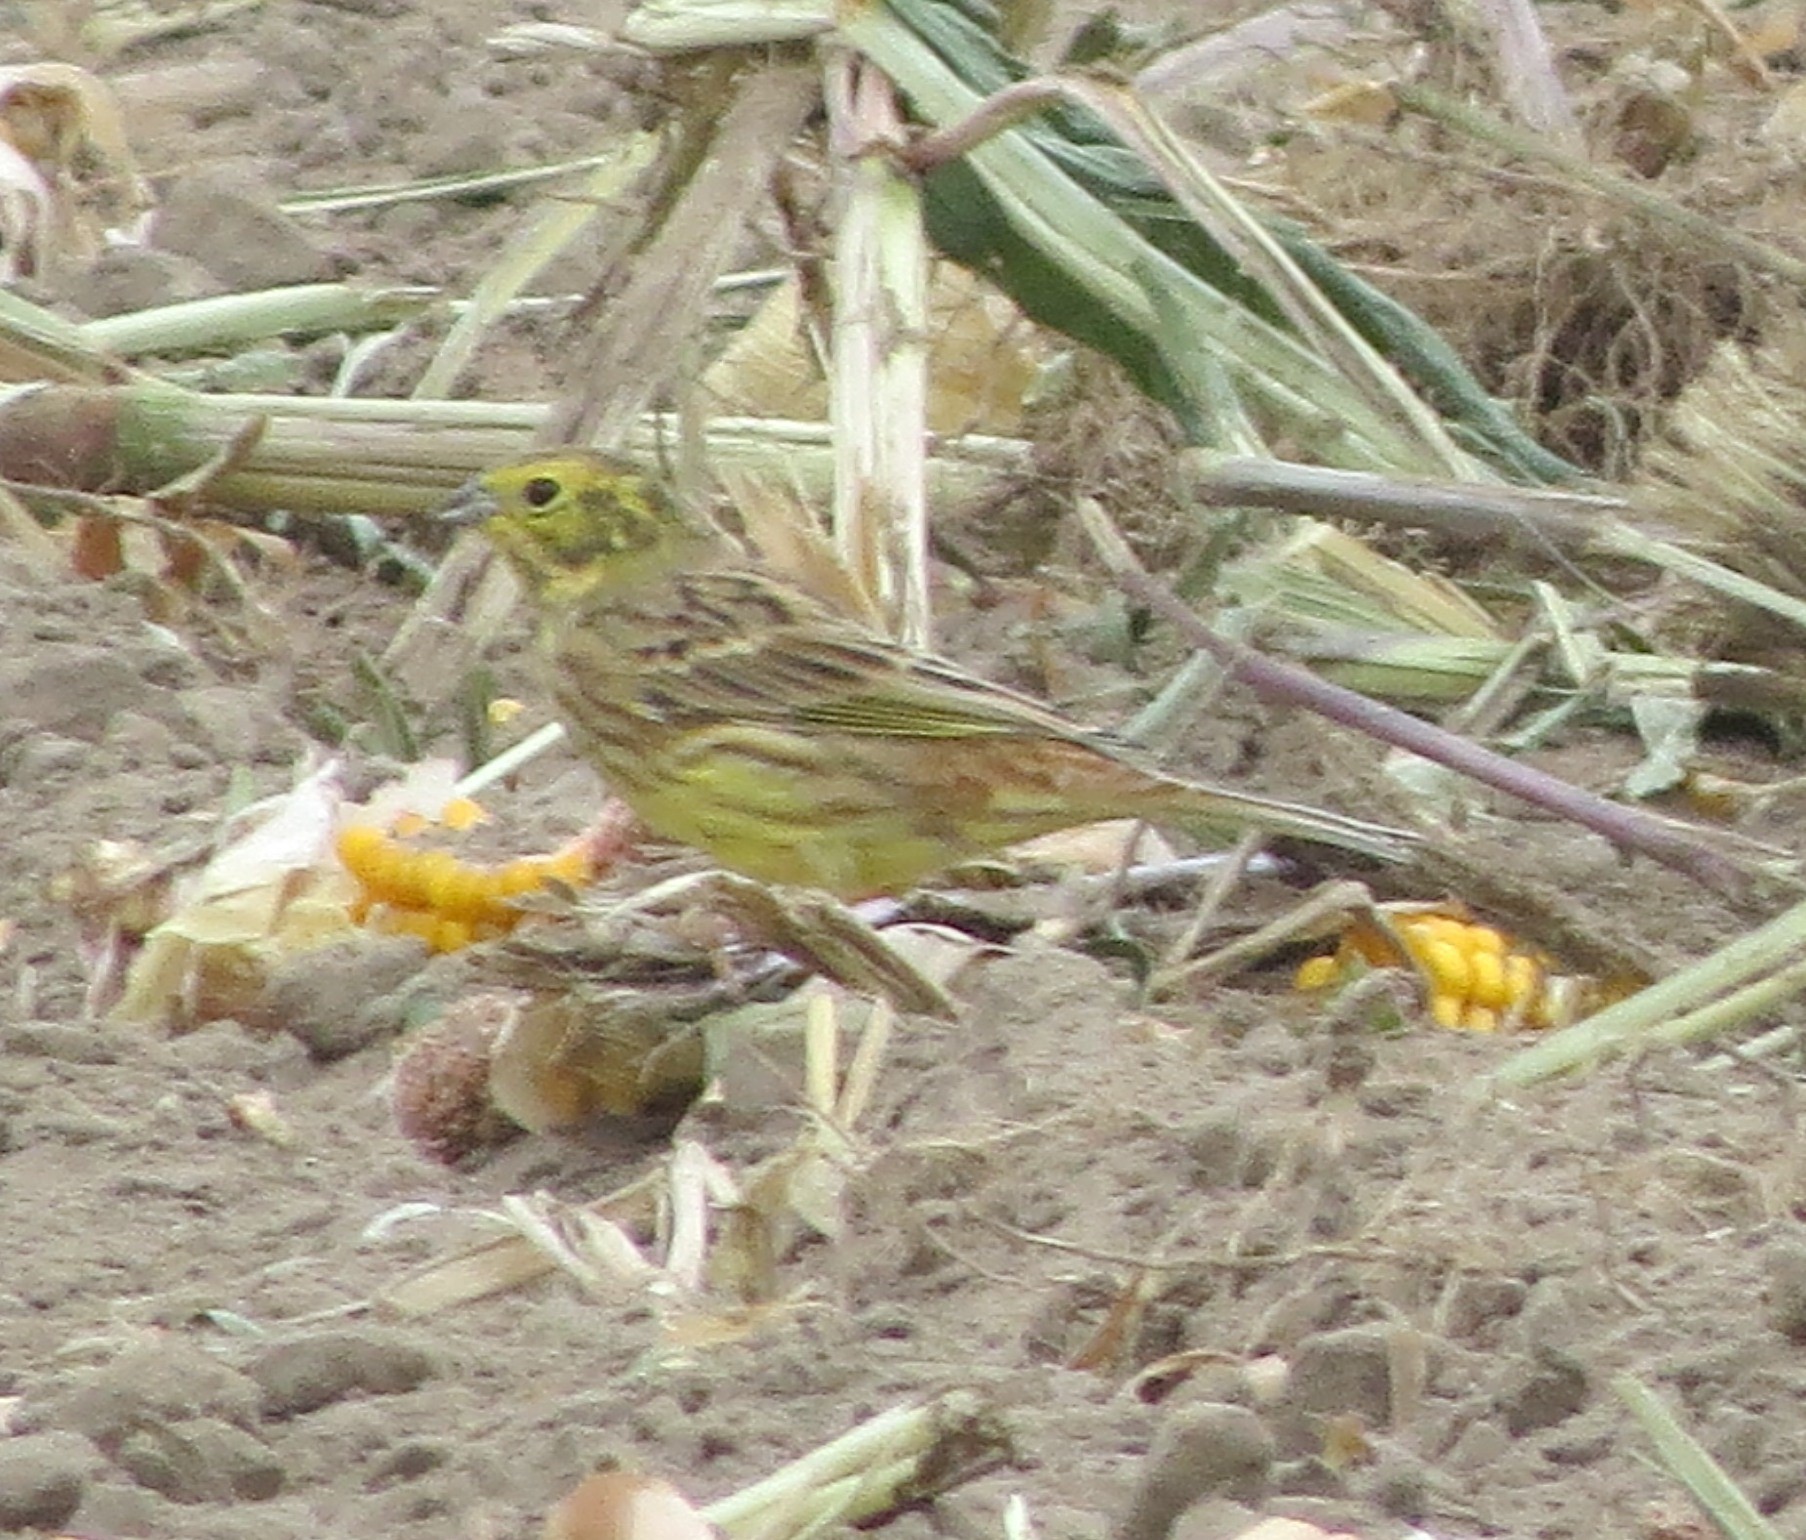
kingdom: Animalia
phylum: Chordata
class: Aves
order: Passeriformes
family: Emberizidae
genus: Emberiza
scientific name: Emberiza citrinella
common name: Yellowhammer
